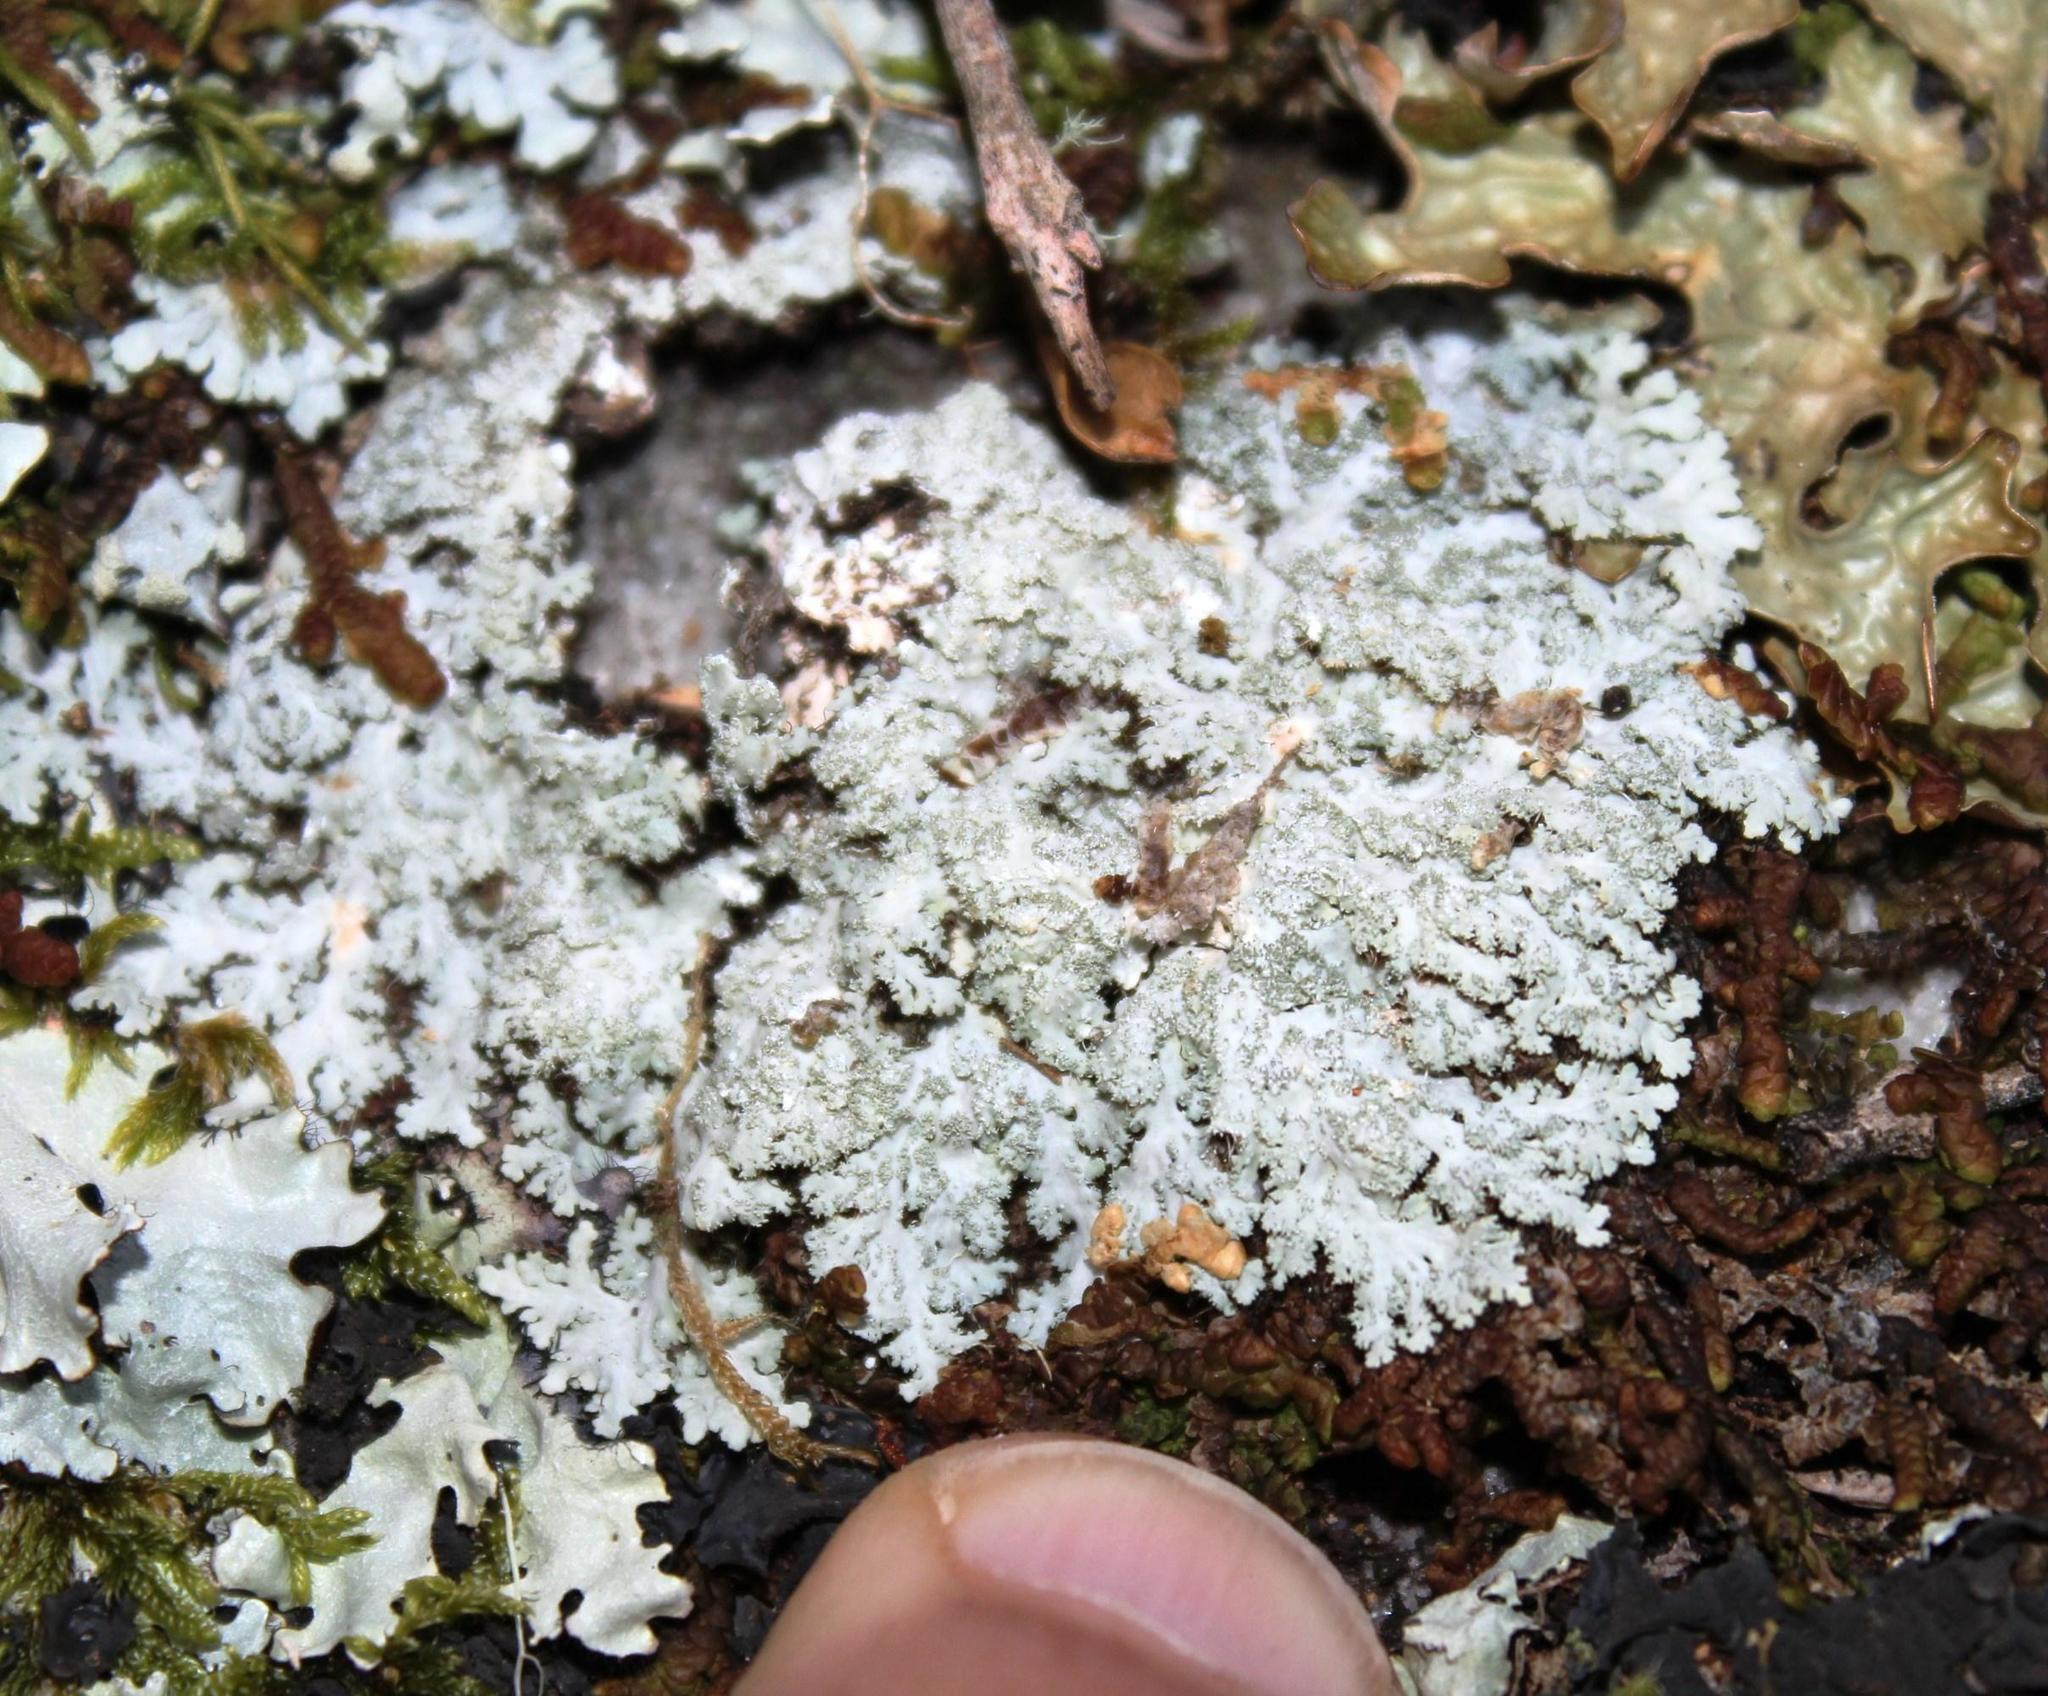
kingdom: Fungi
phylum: Ascomycota
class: Lecanoromycetes
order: Caliciales
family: Physciaceae
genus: Heterodermia
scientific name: Heterodermia isidiophora
